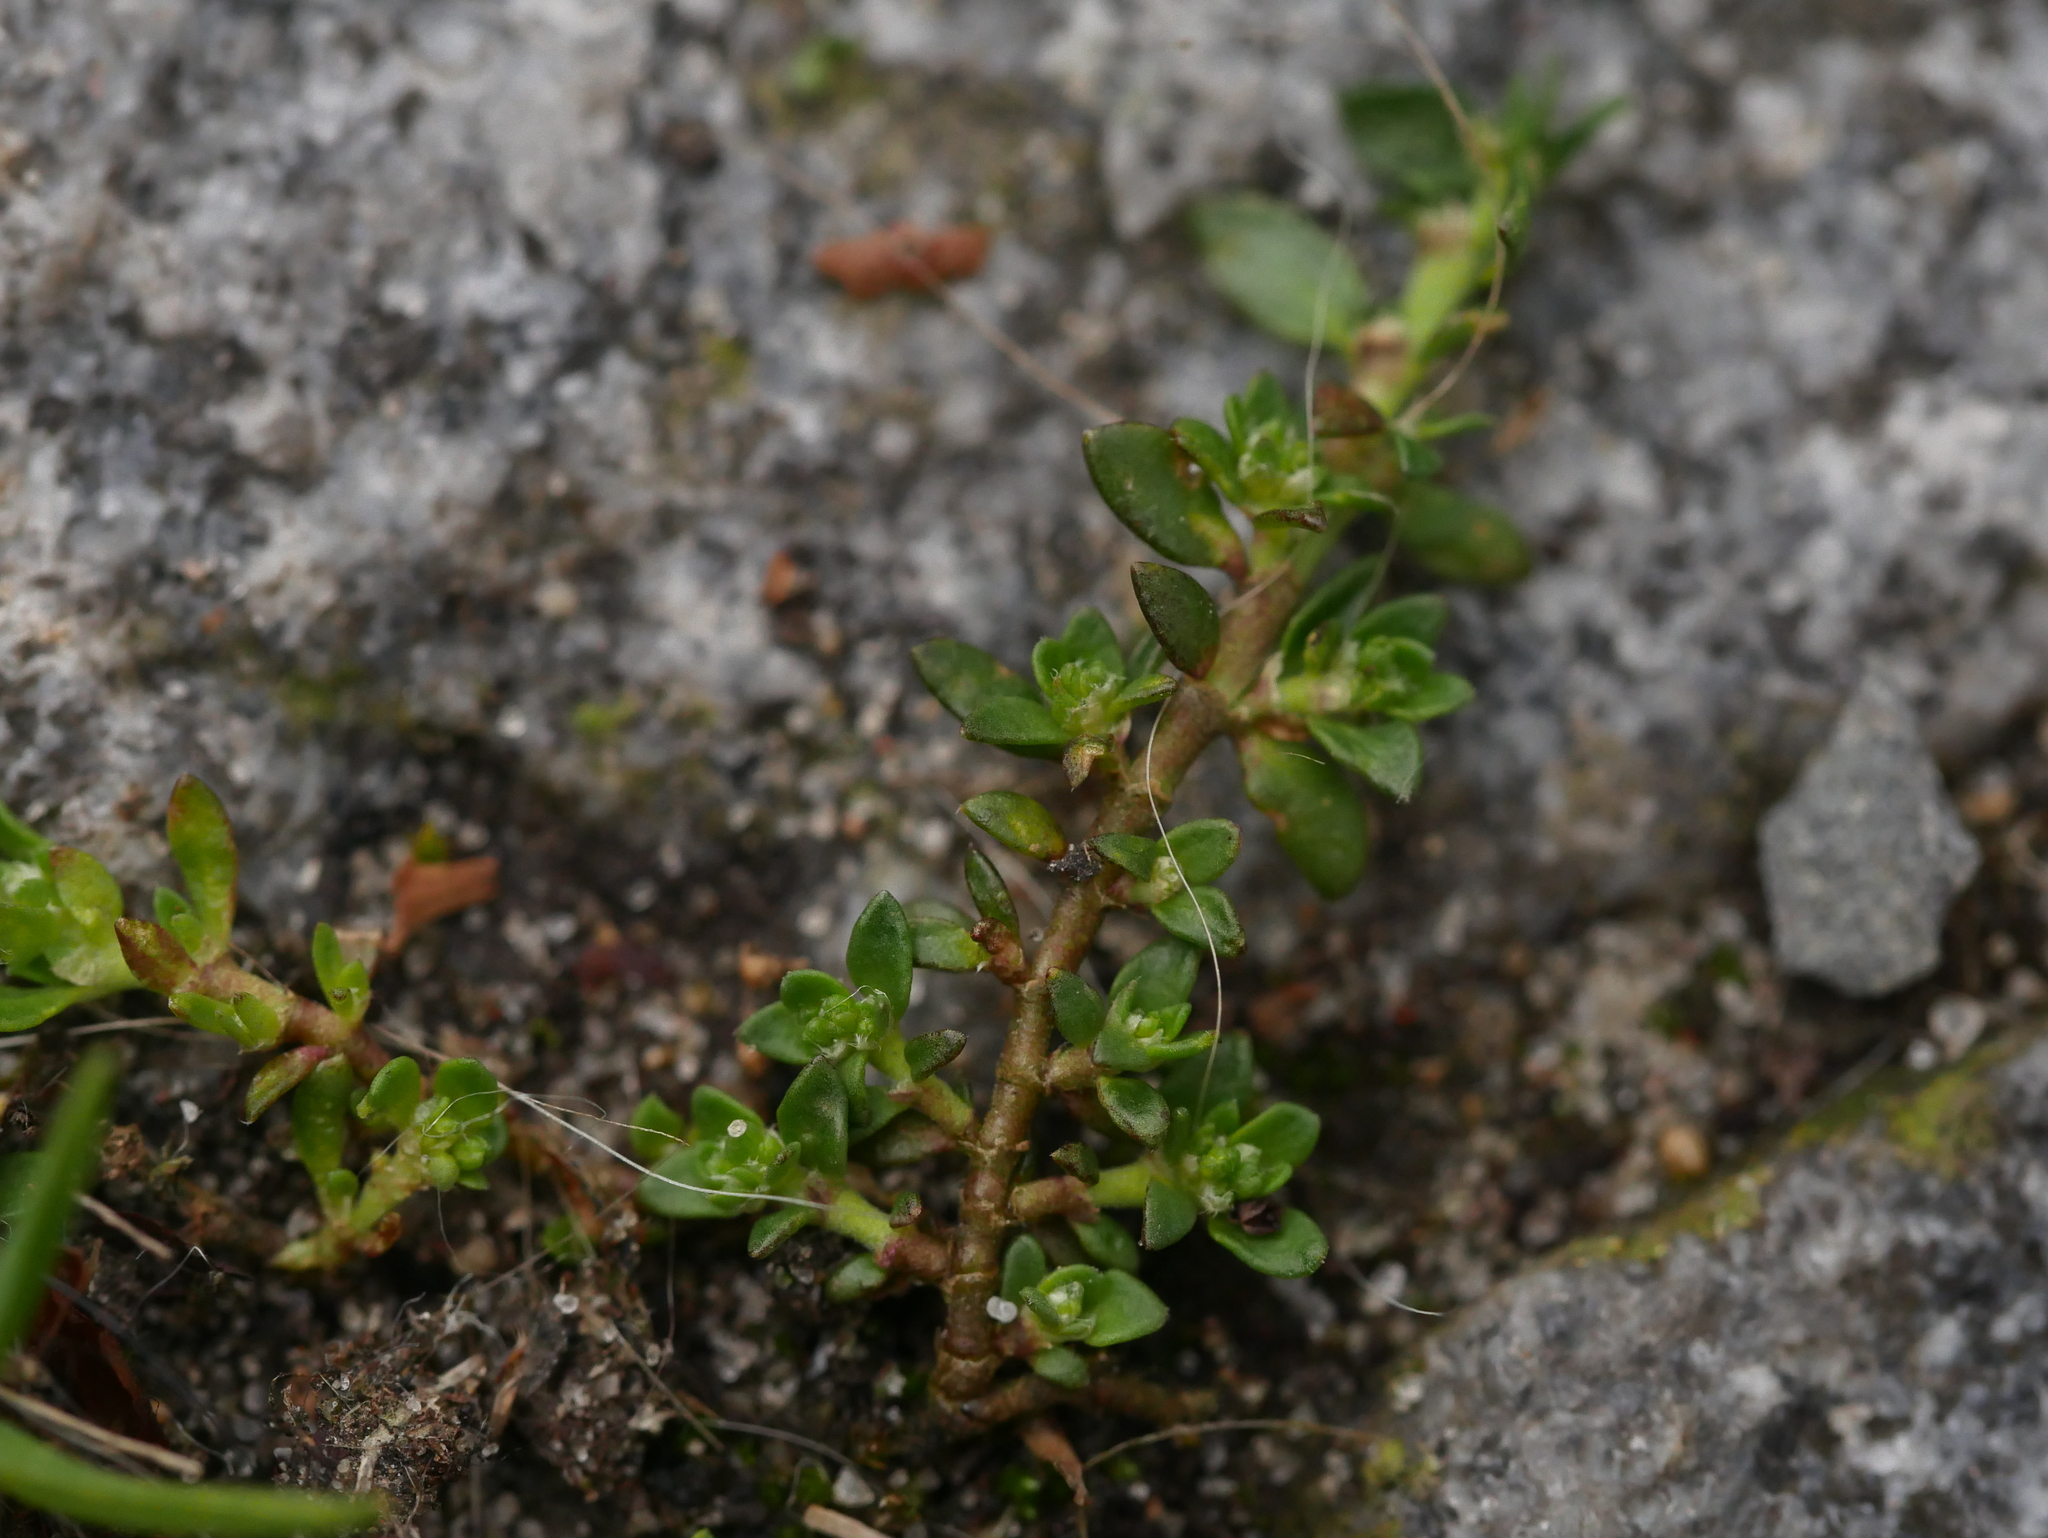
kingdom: Plantae
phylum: Tracheophyta
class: Magnoliopsida
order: Caryophyllales
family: Caryophyllaceae
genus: Herniaria
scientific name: Herniaria glabra
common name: Smooth rupturewort
